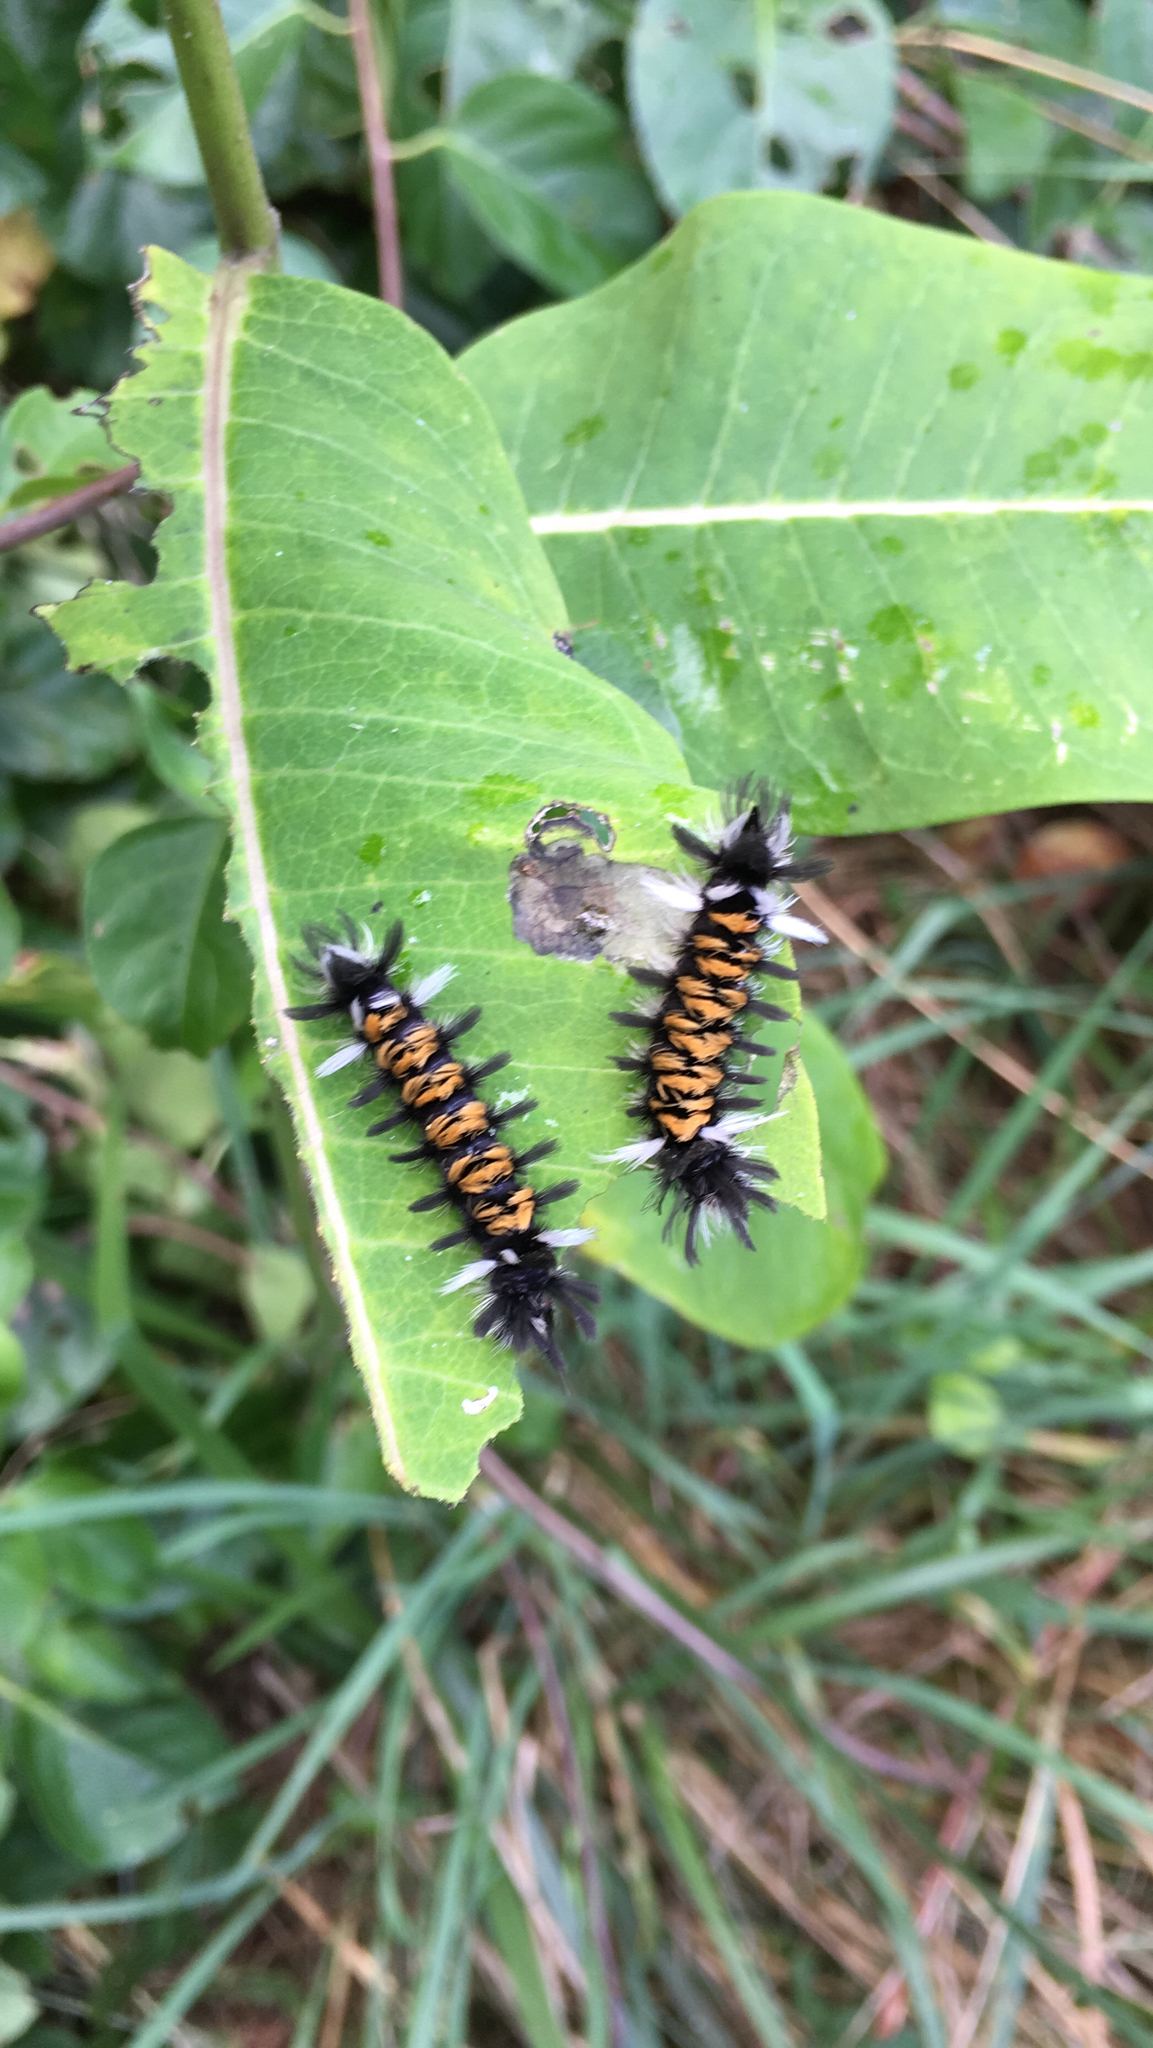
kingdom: Animalia
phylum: Arthropoda
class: Insecta
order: Lepidoptera
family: Erebidae
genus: Euchaetes
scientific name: Euchaetes egle
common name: Milkweed tussock moth
